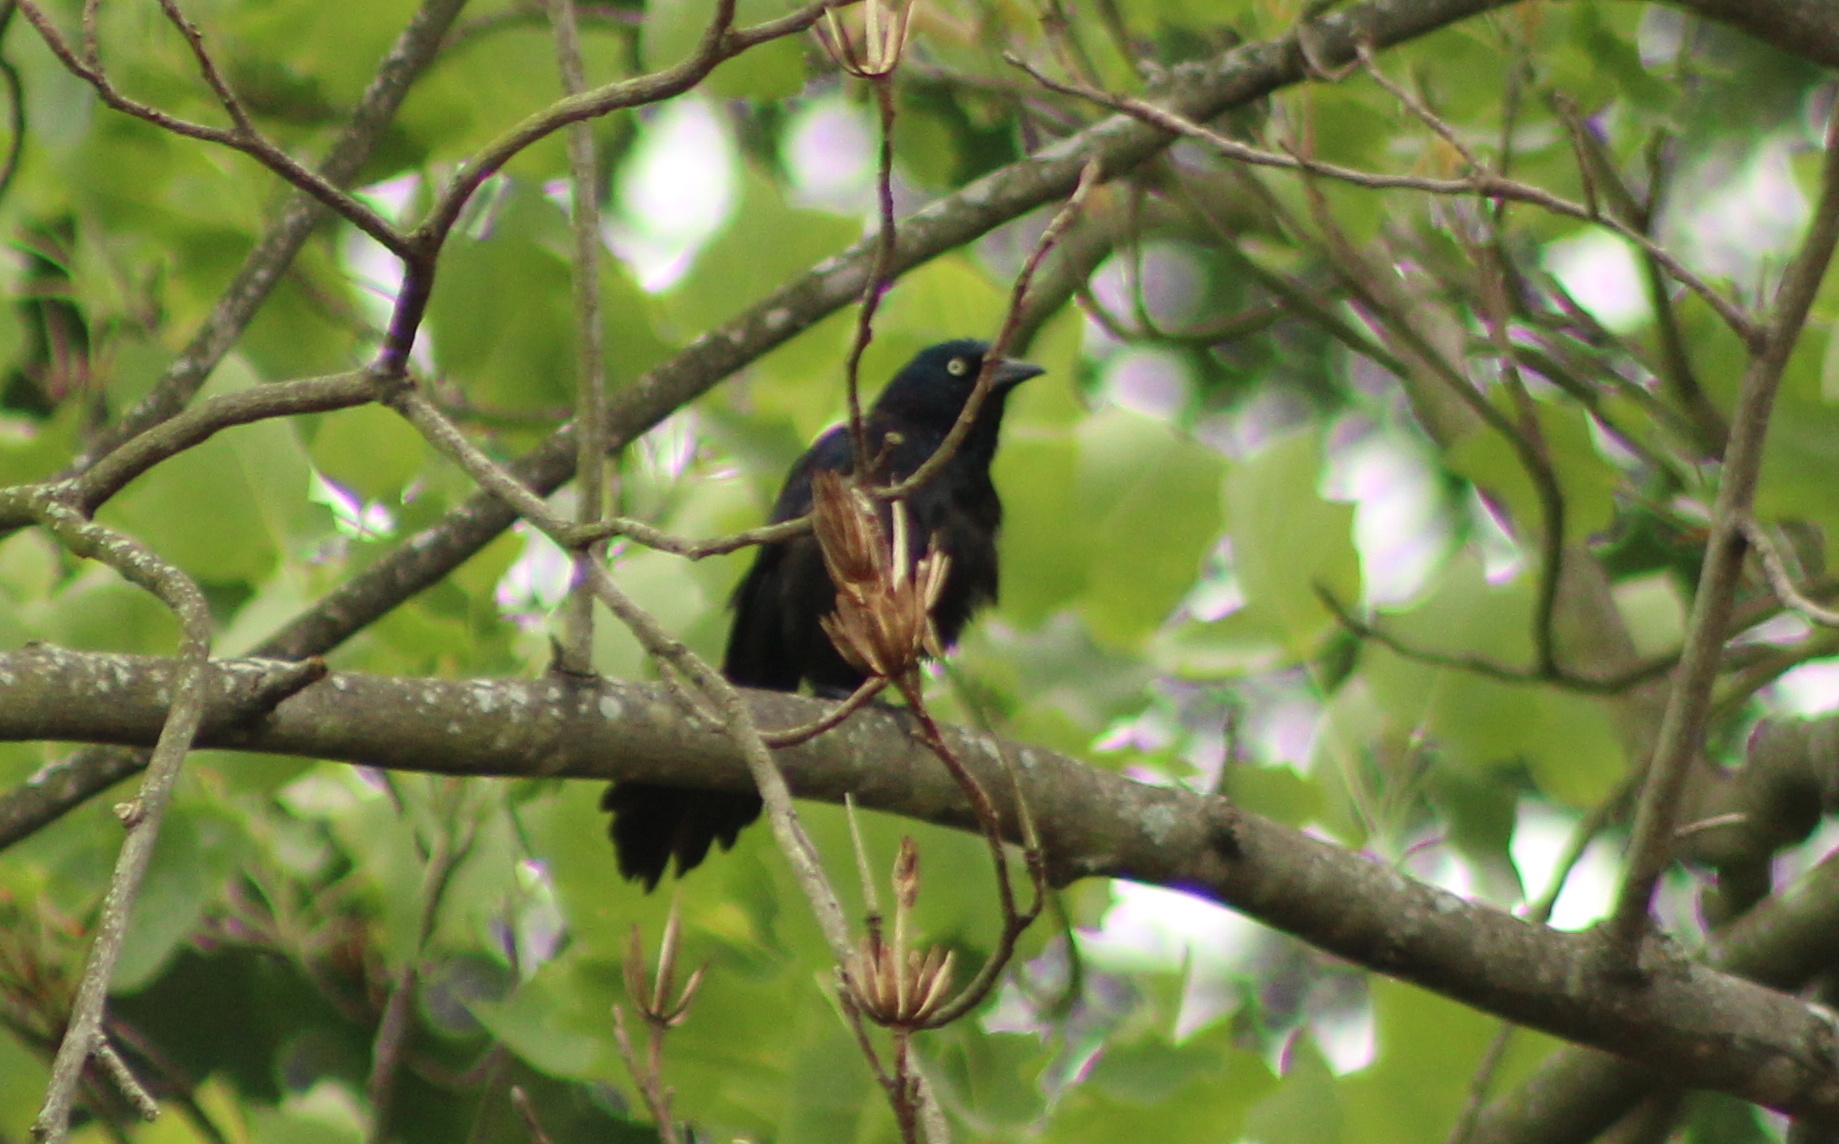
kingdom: Animalia
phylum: Chordata
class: Aves
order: Passeriformes
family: Icteridae
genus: Quiscalus
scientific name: Quiscalus quiscula
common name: Common grackle
